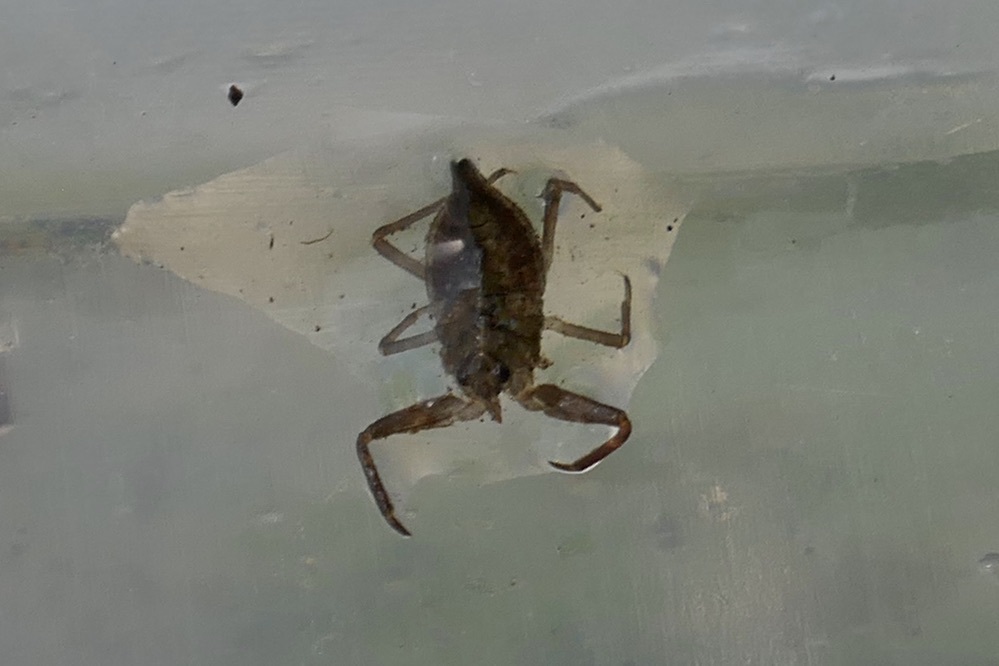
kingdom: Animalia
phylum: Arthropoda
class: Insecta
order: Hemiptera
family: Nepidae
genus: Nepa
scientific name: Nepa cinerea
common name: Water scorpion
